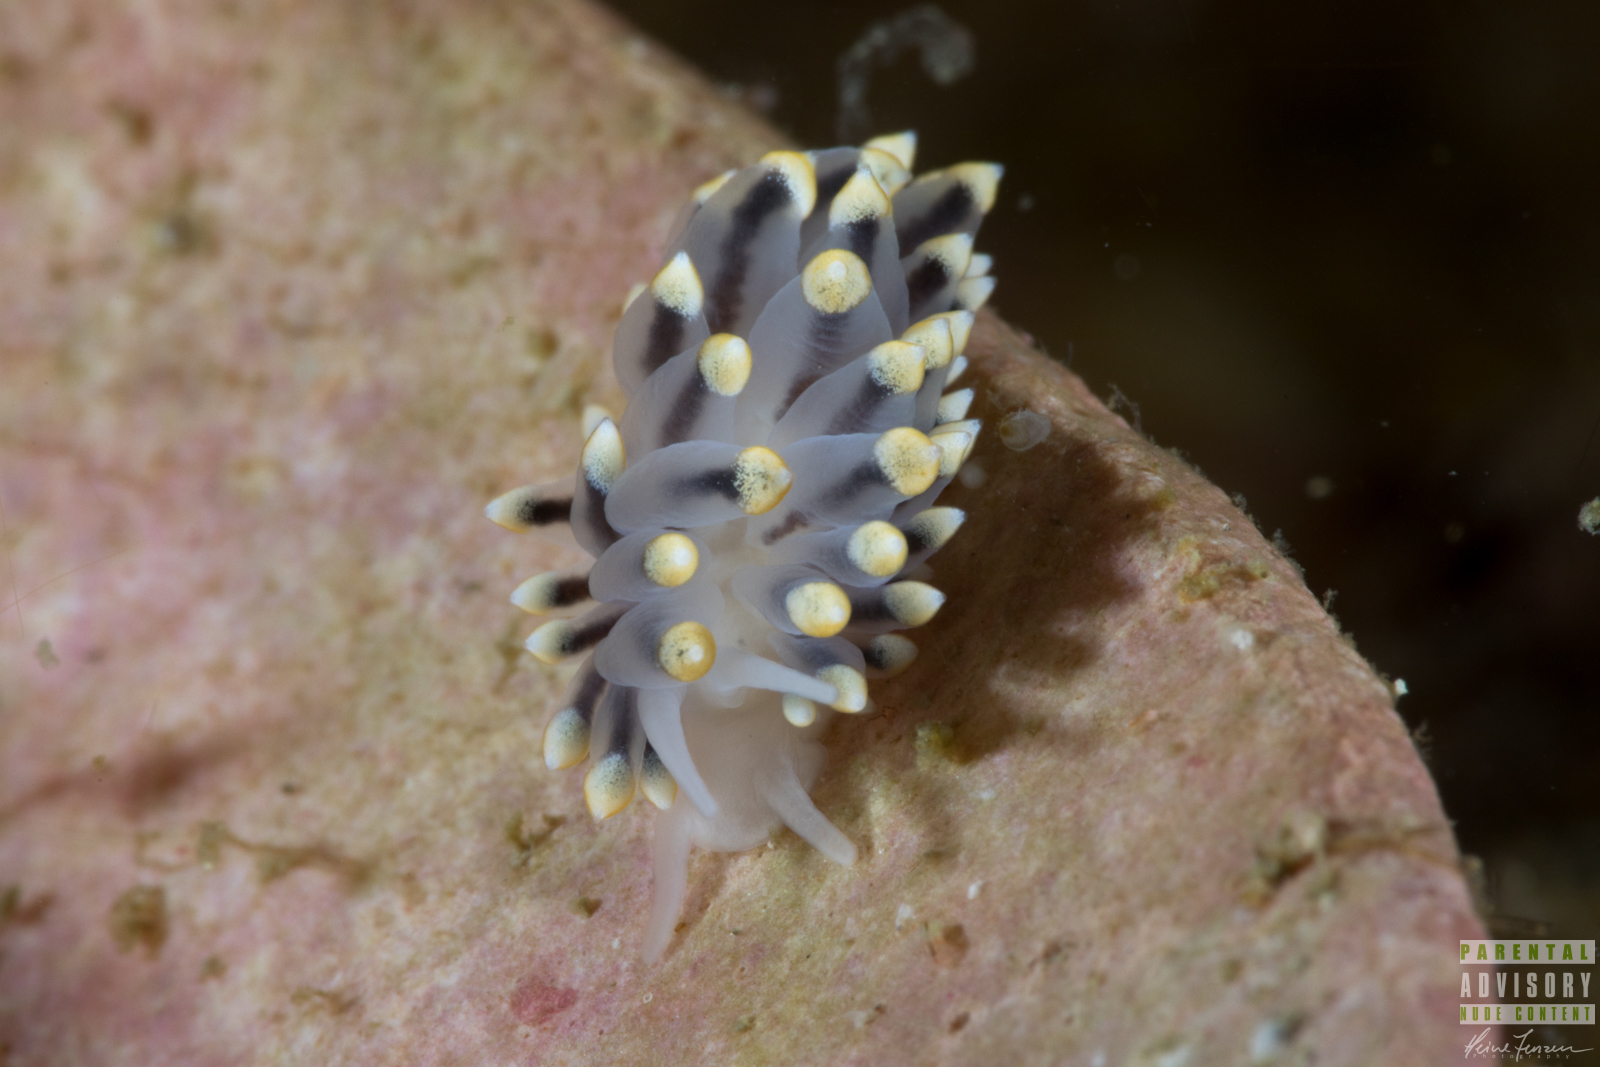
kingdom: Animalia
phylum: Mollusca
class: Gastropoda
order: Nudibranchia
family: Eubranchidae
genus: Eubranchus
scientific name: Eubranchus tricolor
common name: Painted balloon aeolis
